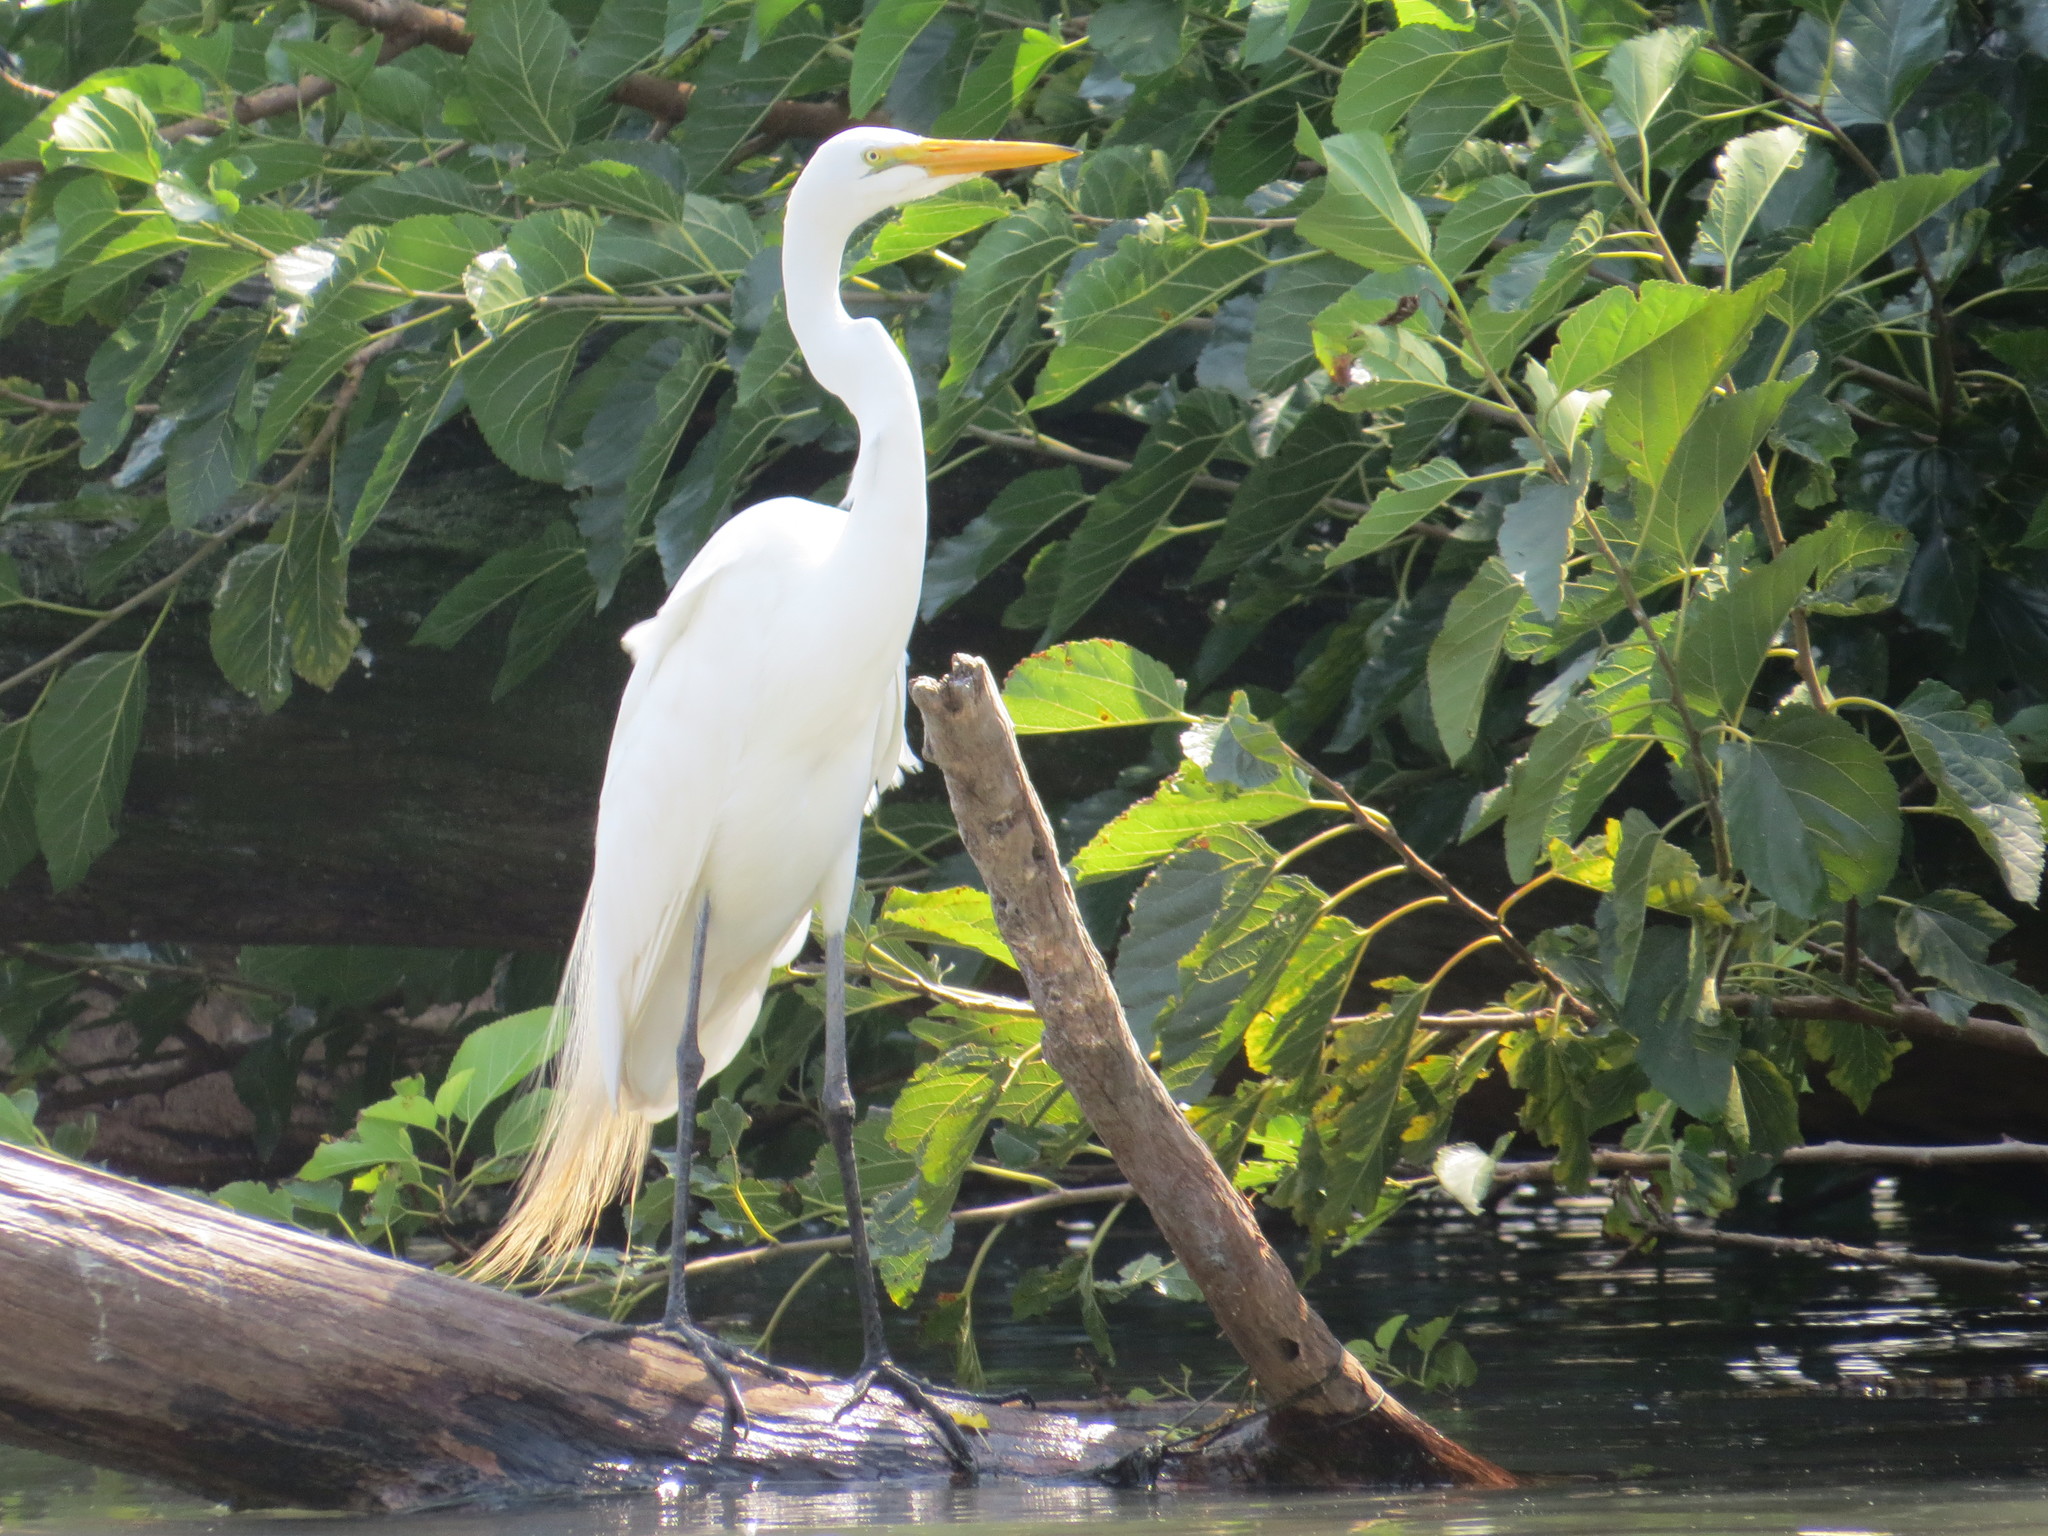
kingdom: Animalia
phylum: Chordata
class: Aves
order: Pelecaniformes
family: Ardeidae
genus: Ardea
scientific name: Ardea alba
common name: Great egret
